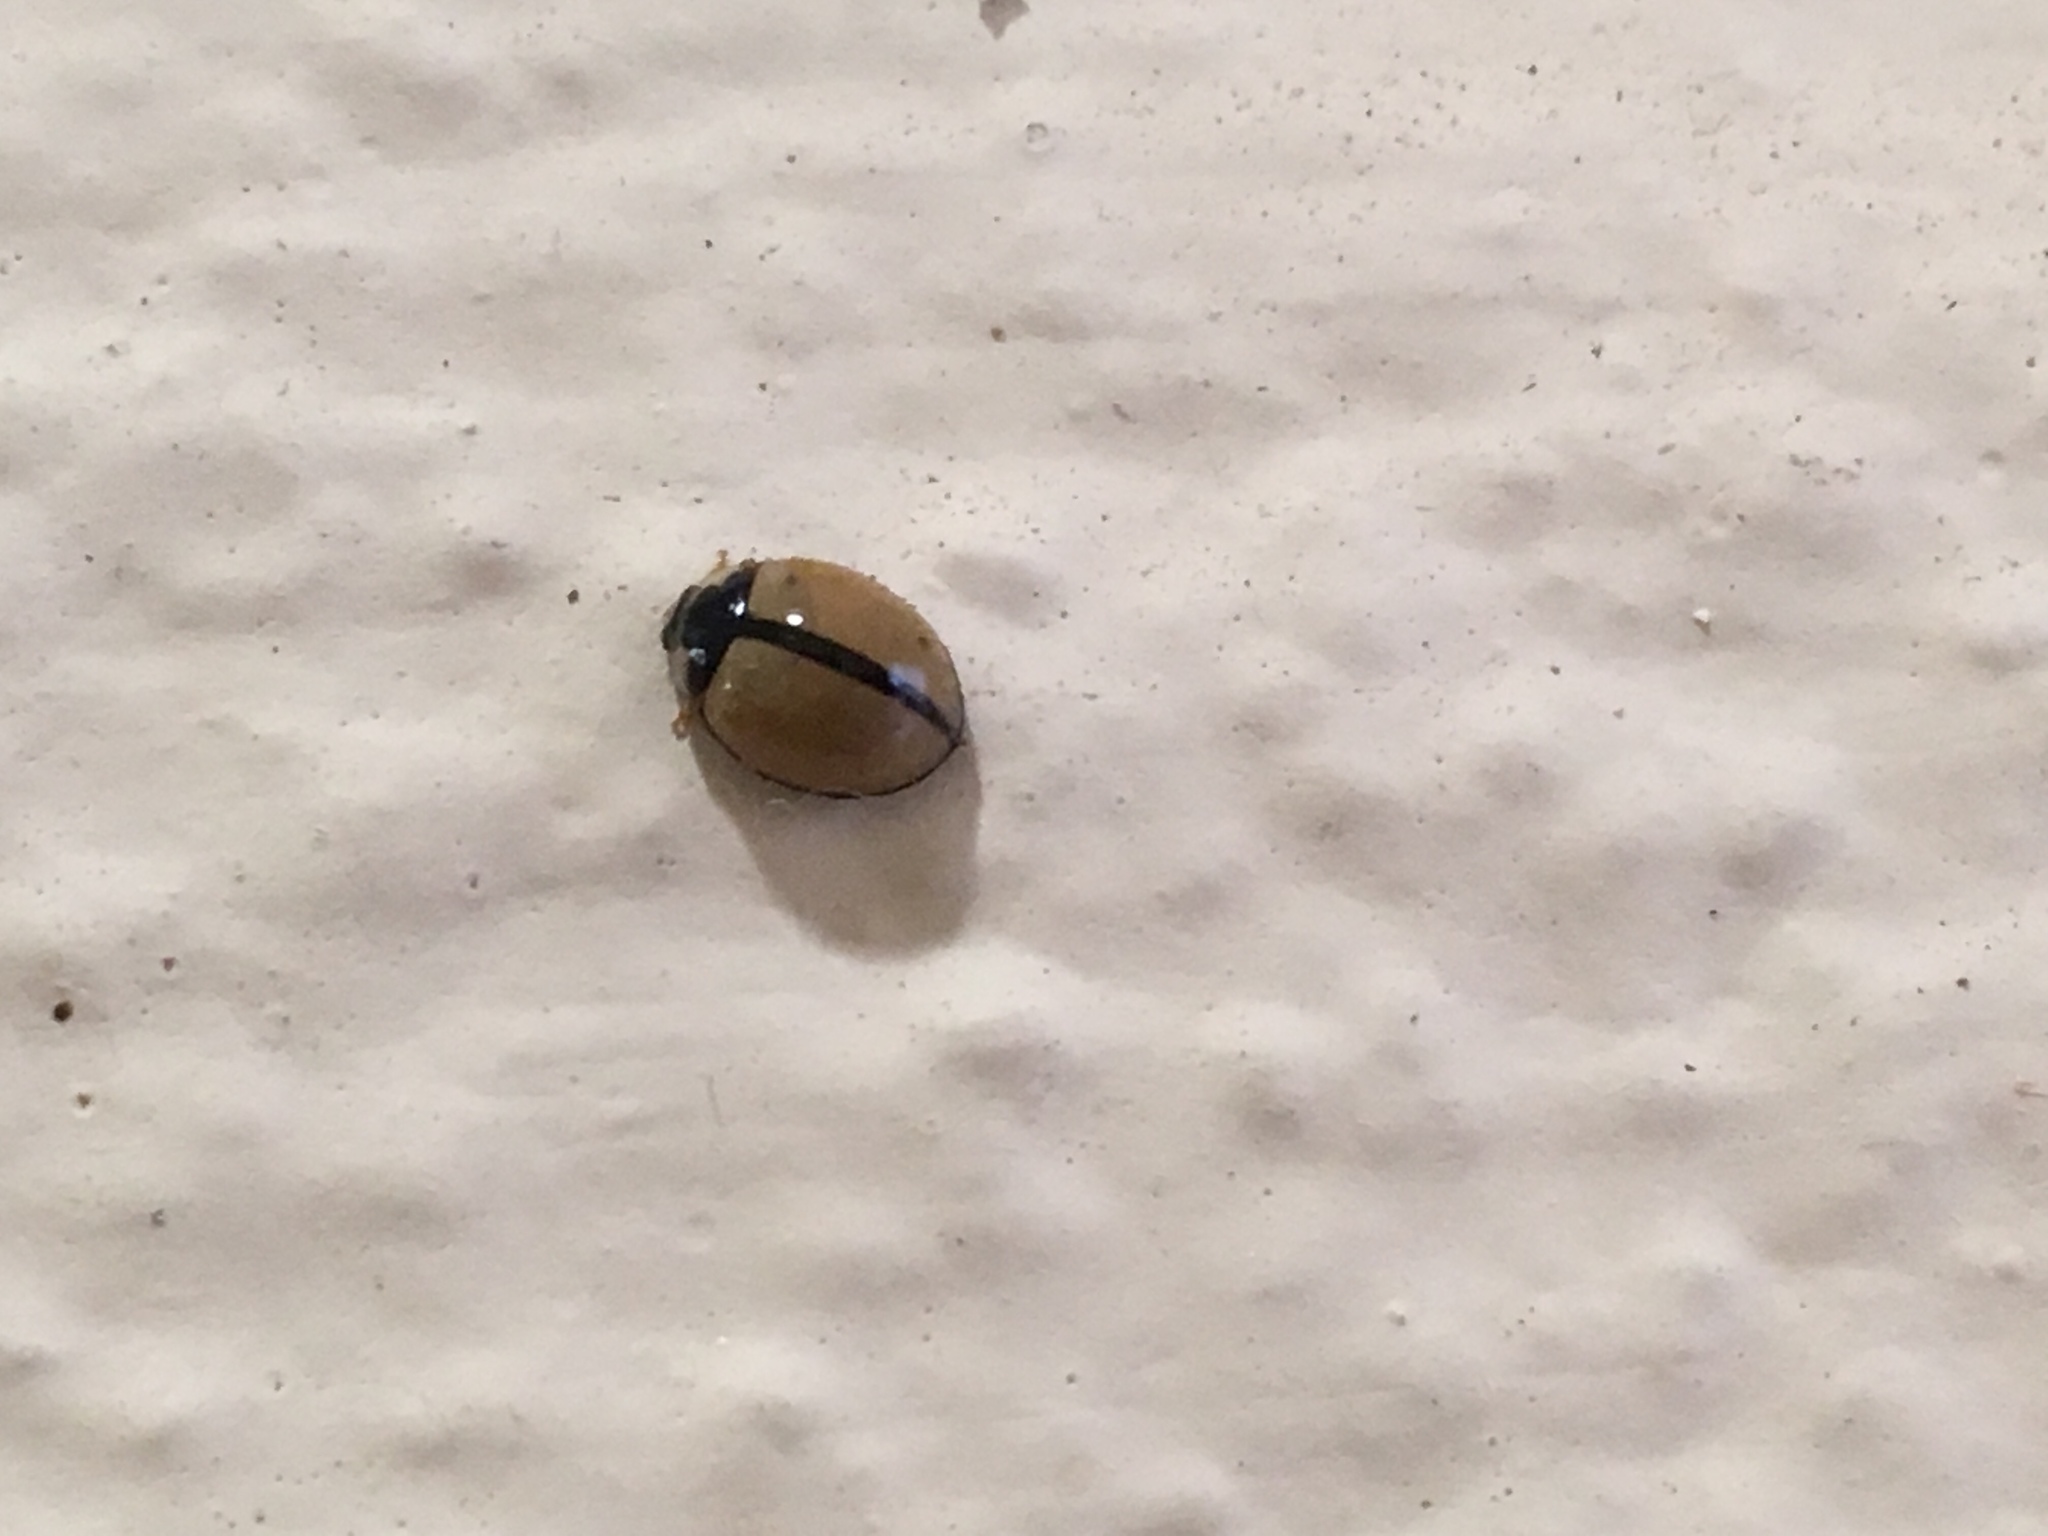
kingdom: Animalia
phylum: Arthropoda
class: Insecta
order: Coleoptera
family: Coccinellidae
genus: Cheilomenes
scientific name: Cheilomenes propinqua
